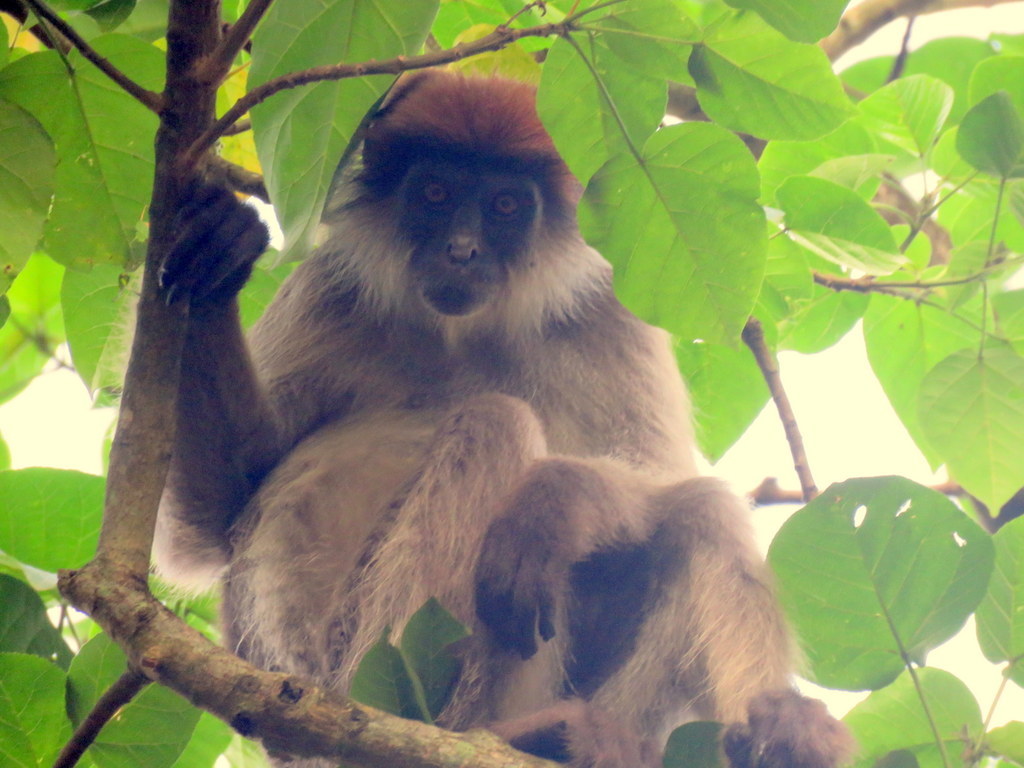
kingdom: Animalia
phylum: Chordata
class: Mammalia
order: Primates
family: Cercopithecidae
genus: Piliocolobus
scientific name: Piliocolobus tephrosceles
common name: Ugandan red colobus
